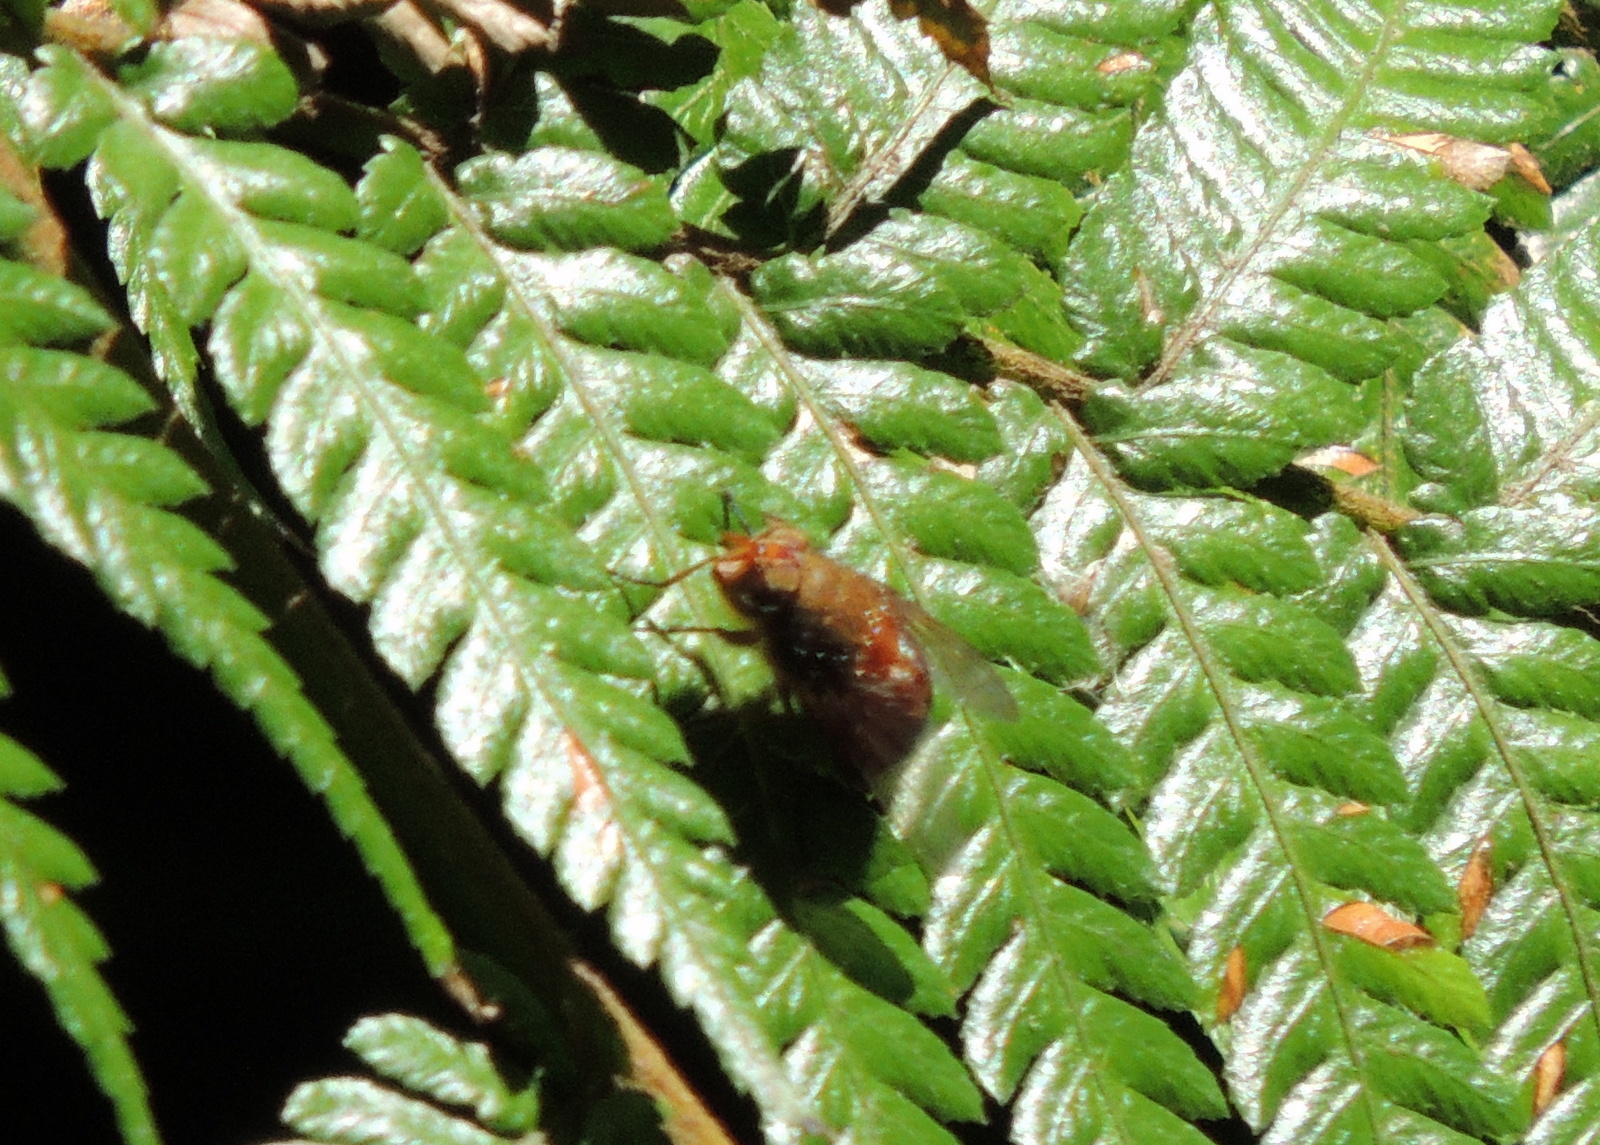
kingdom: Animalia
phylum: Arthropoda
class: Insecta
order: Diptera
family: Calliphoridae
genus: Calliphora
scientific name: Calliphora ochracea
